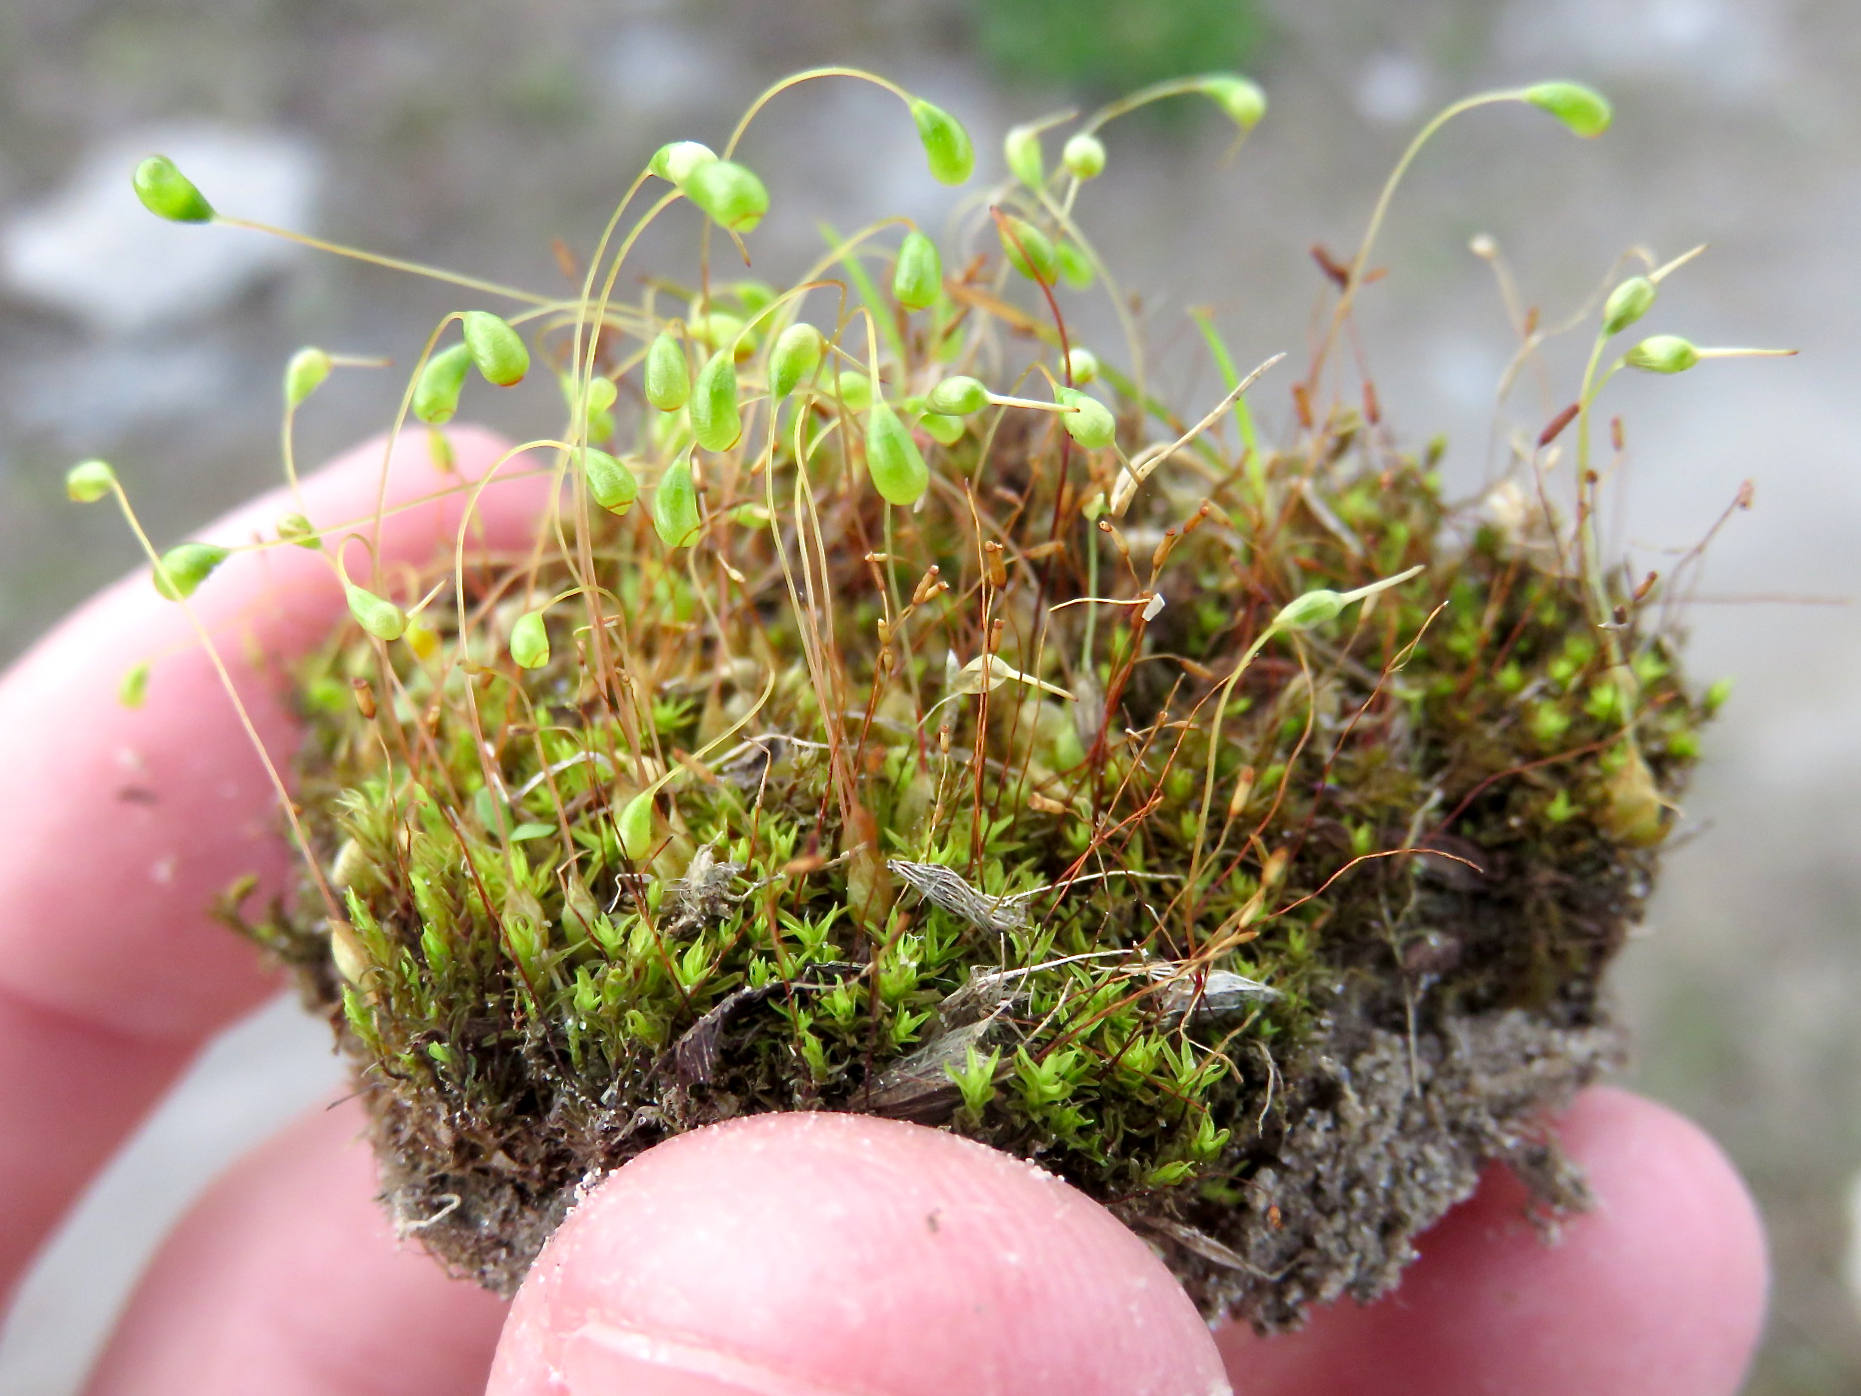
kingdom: Plantae
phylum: Bryophyta
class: Bryopsida
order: Funariales
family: Funariaceae
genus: Funaria
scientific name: Funaria hygrometrica
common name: Common cord moss
